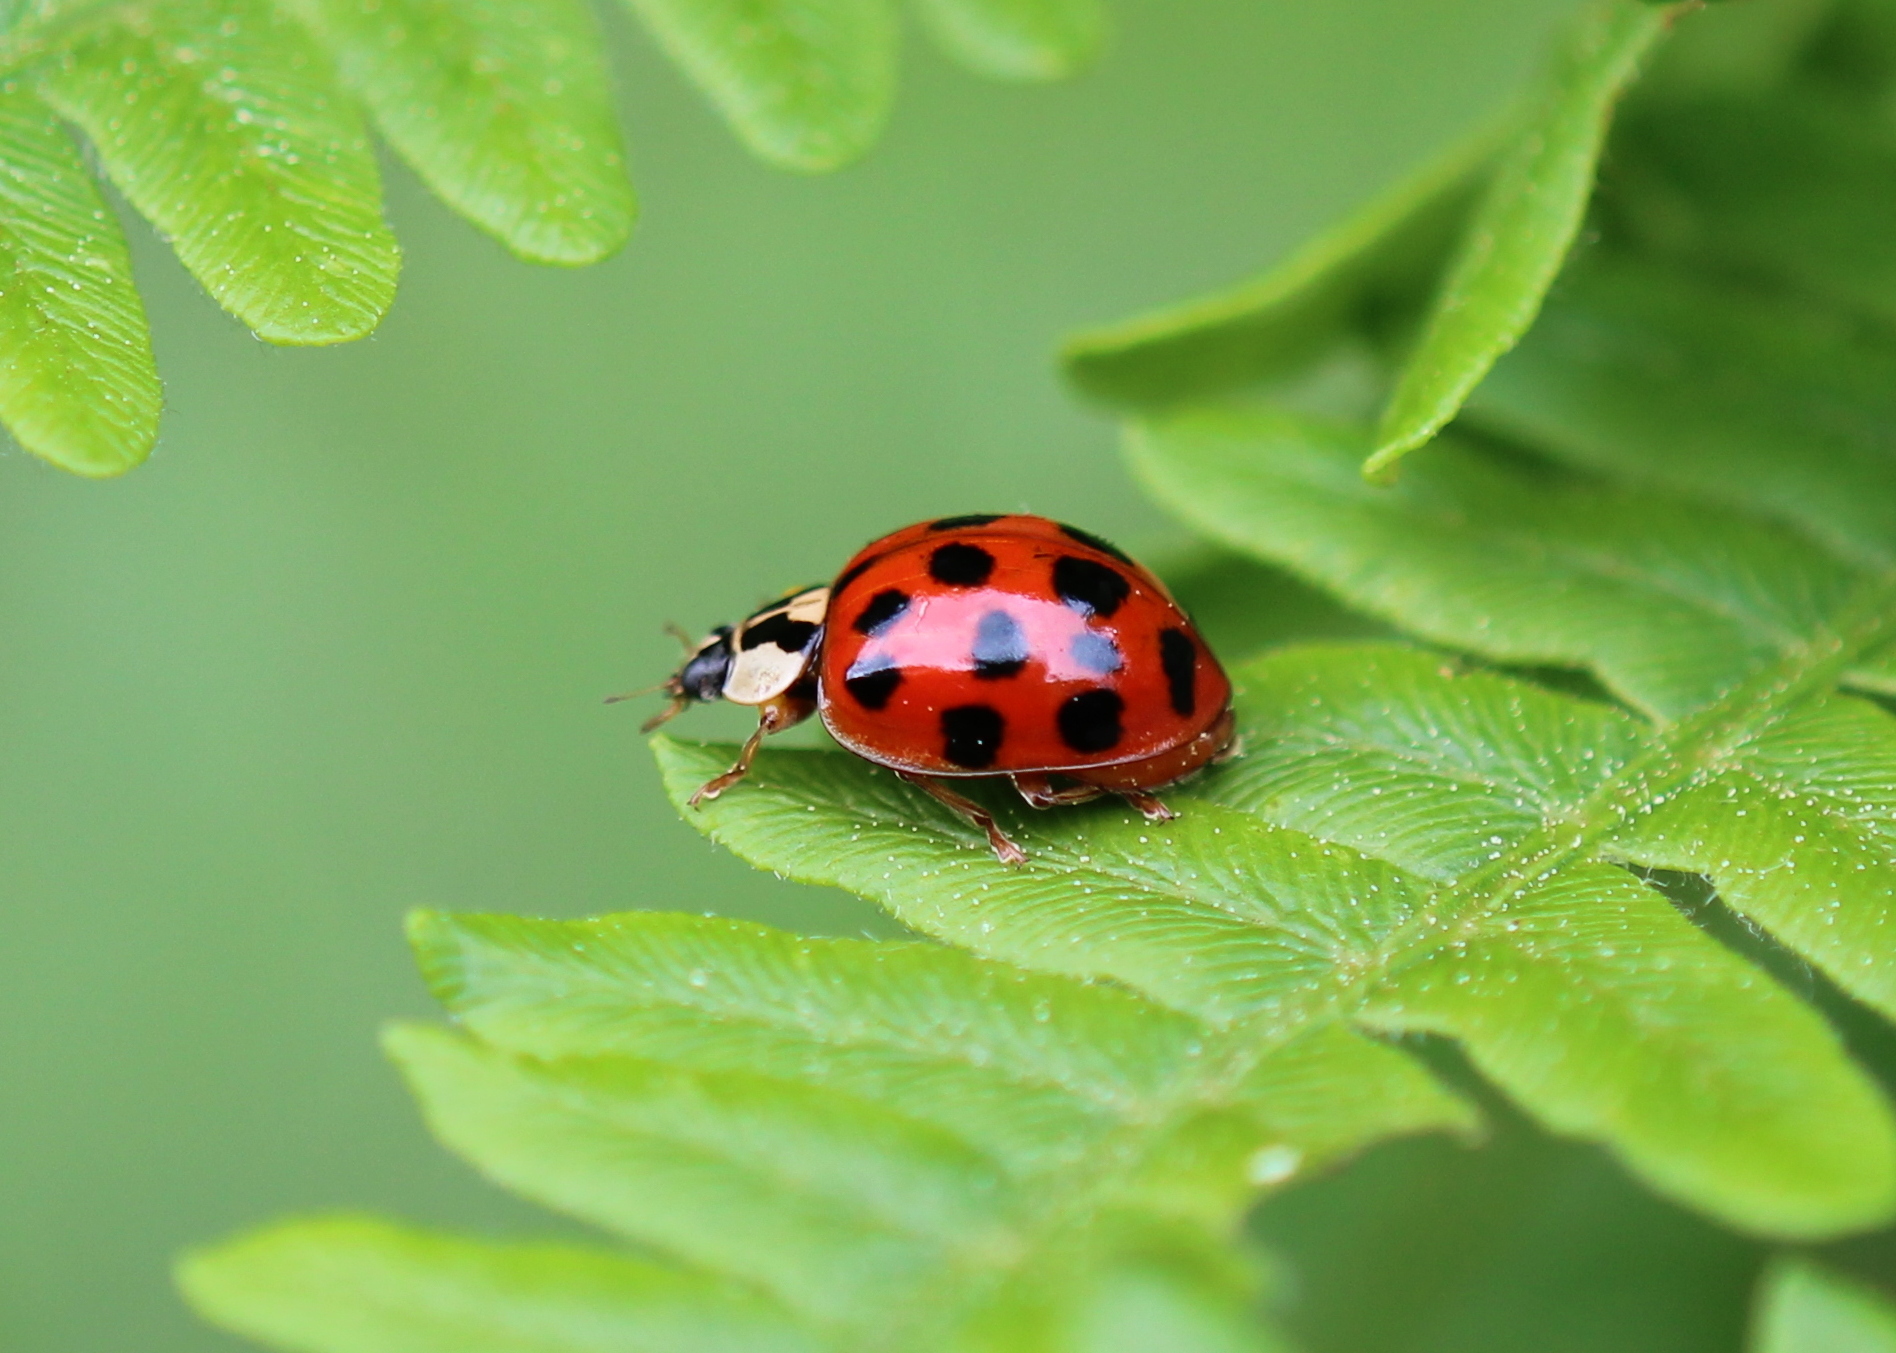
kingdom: Animalia
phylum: Arthropoda
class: Insecta
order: Coleoptera
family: Coccinellidae
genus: Harmonia
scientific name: Harmonia axyridis
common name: Harlequin ladybird
